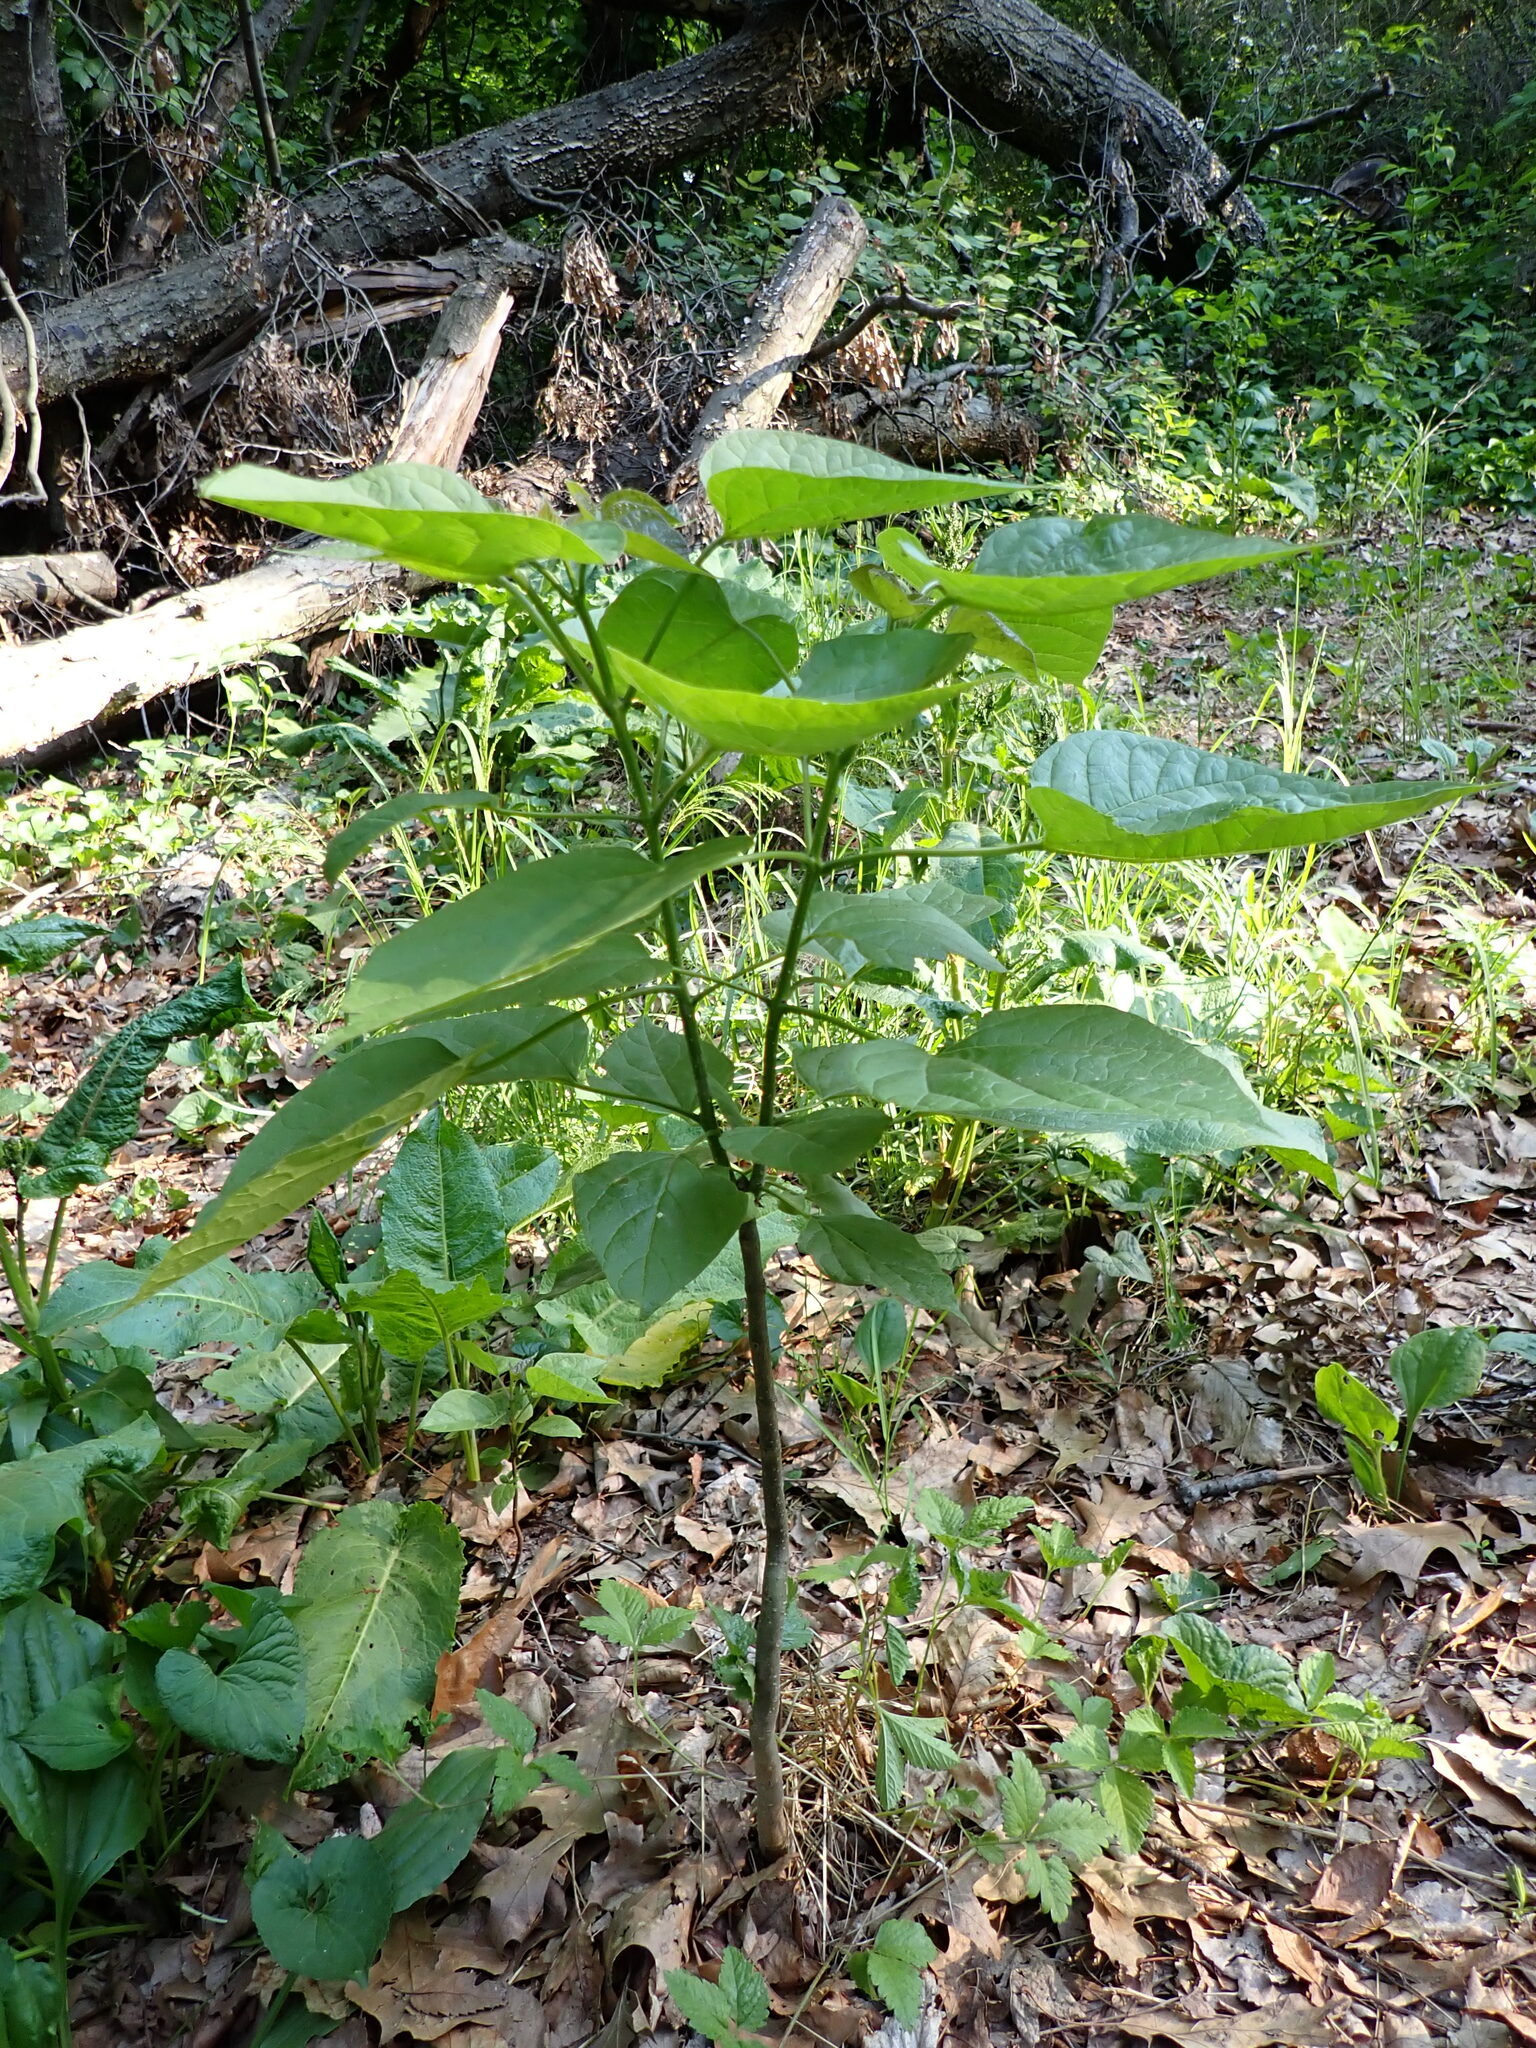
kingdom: Plantae
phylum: Tracheophyta
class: Magnoliopsida
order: Lamiales
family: Bignoniaceae
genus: Catalpa
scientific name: Catalpa speciosa
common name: Northern catalpa
